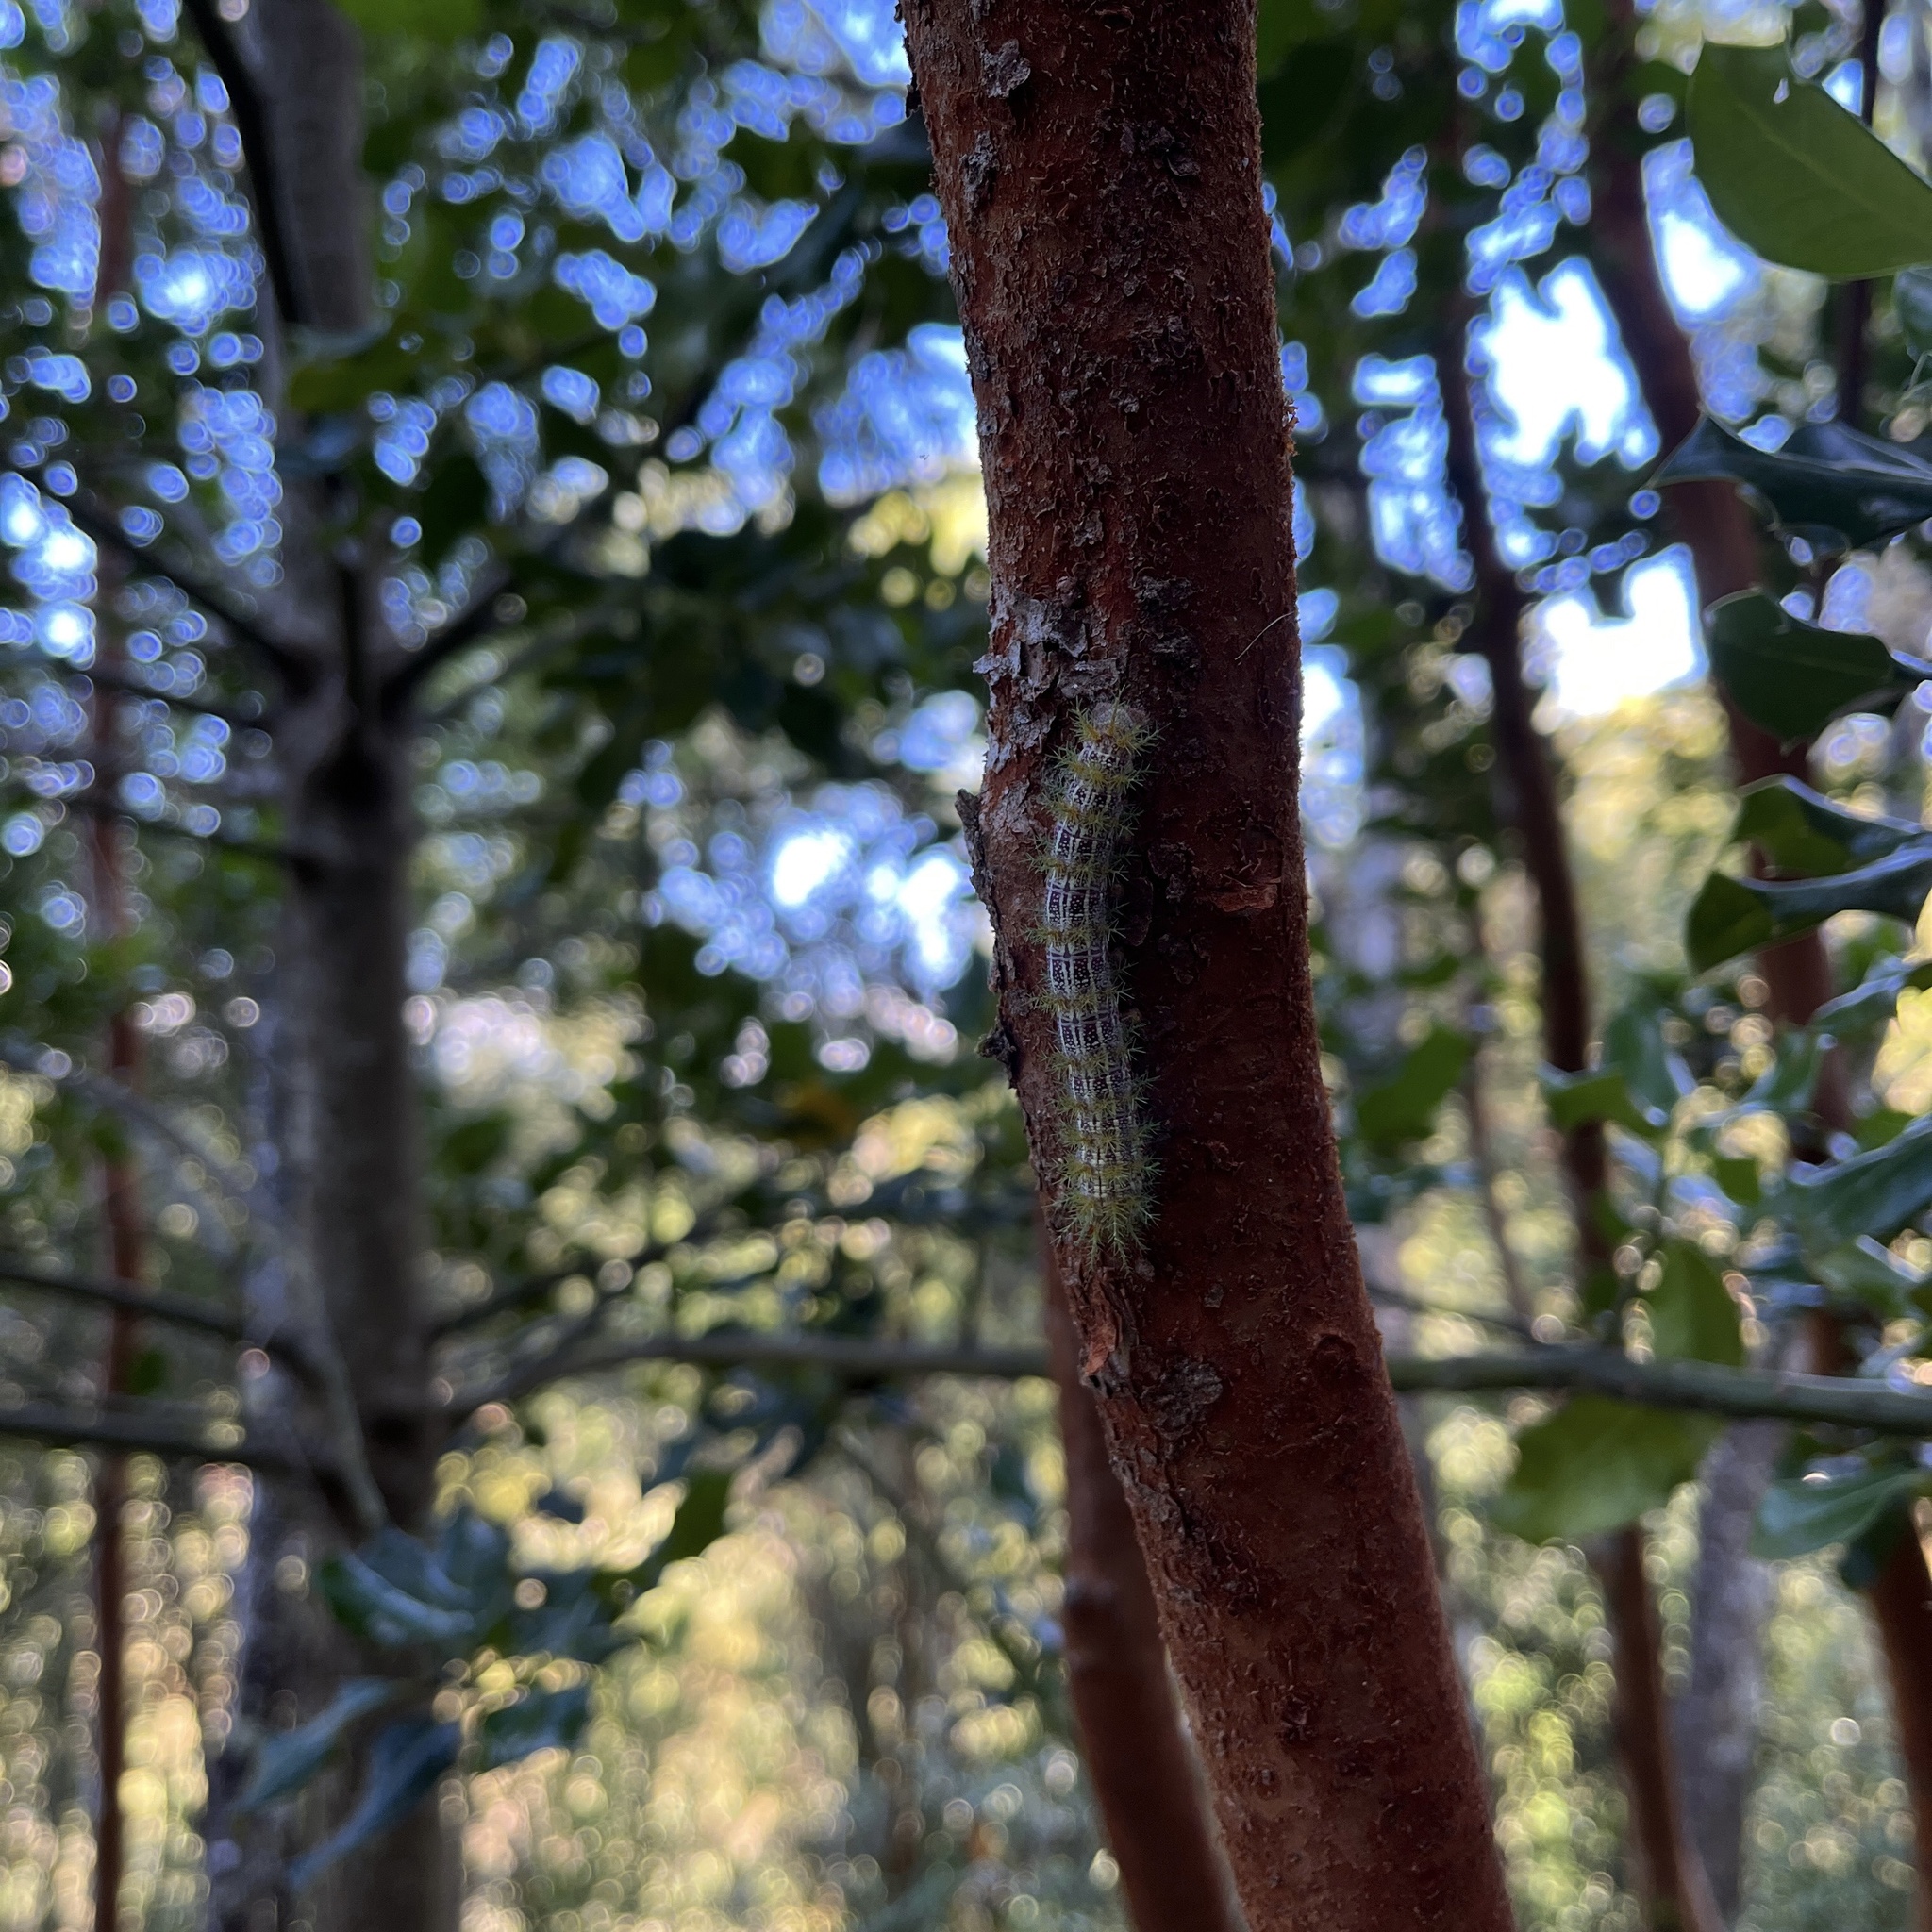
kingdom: Animalia
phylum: Arthropoda
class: Insecta
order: Lepidoptera
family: Saturniidae
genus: Ormiscodes
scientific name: Ormiscodes amphinome
